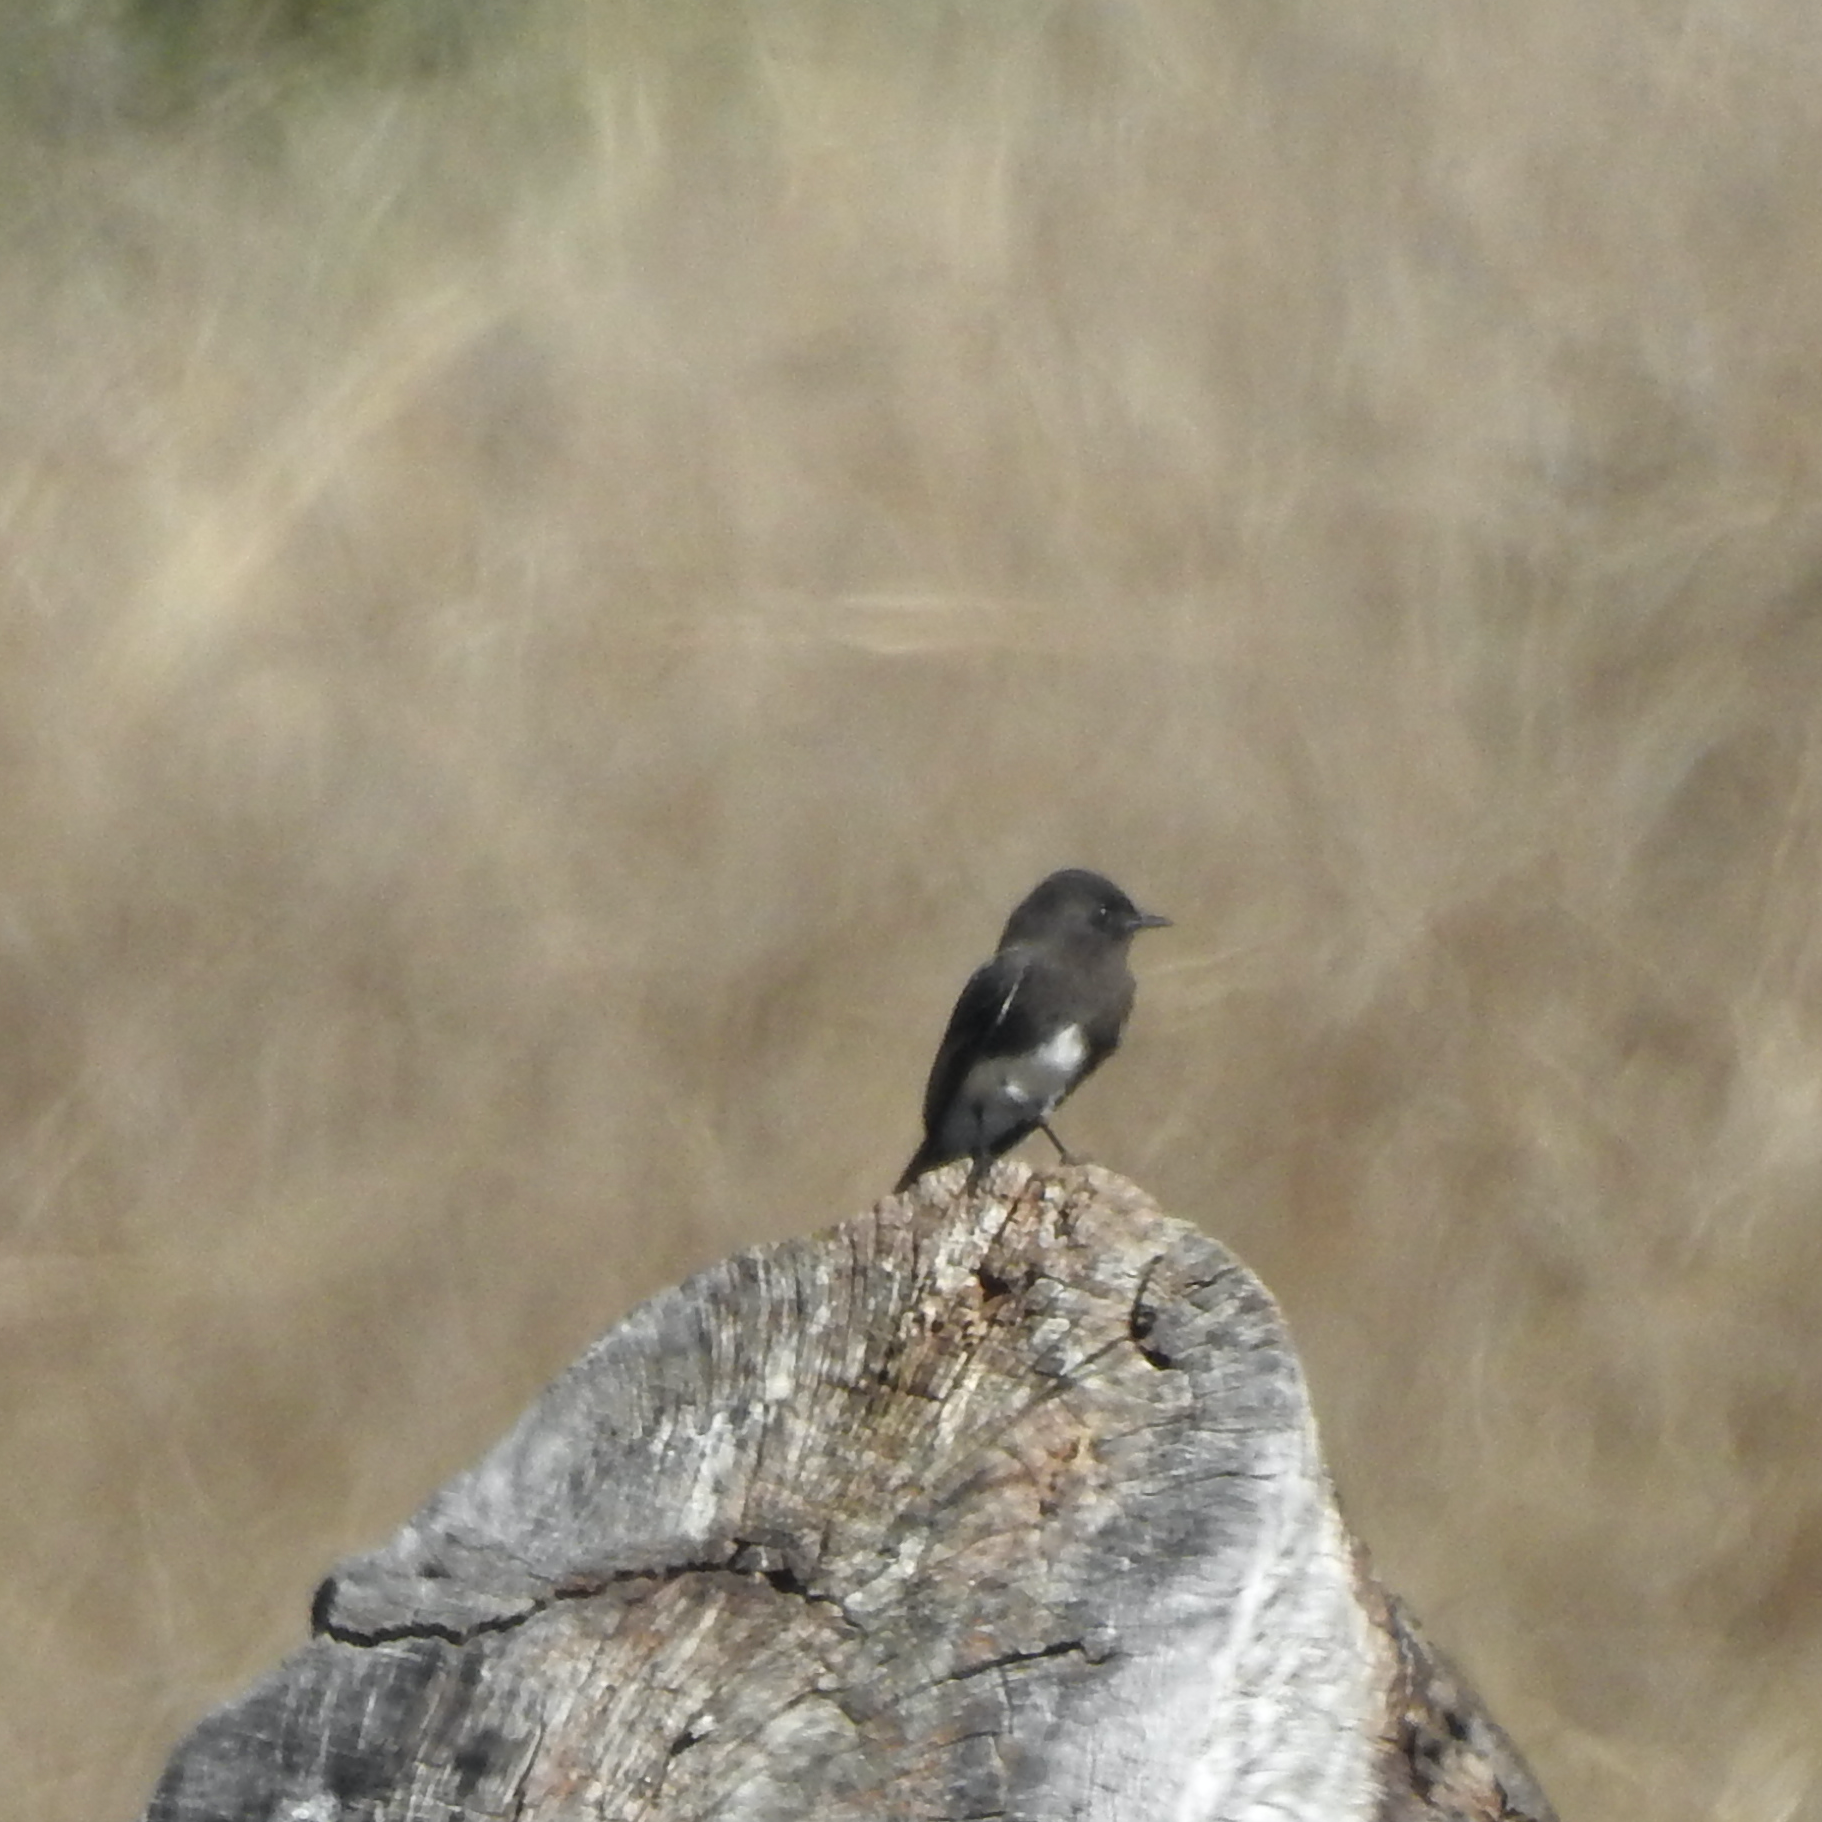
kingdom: Animalia
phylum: Chordata
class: Aves
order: Passeriformes
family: Tyrannidae
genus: Sayornis
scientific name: Sayornis nigricans
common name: Black phoebe
